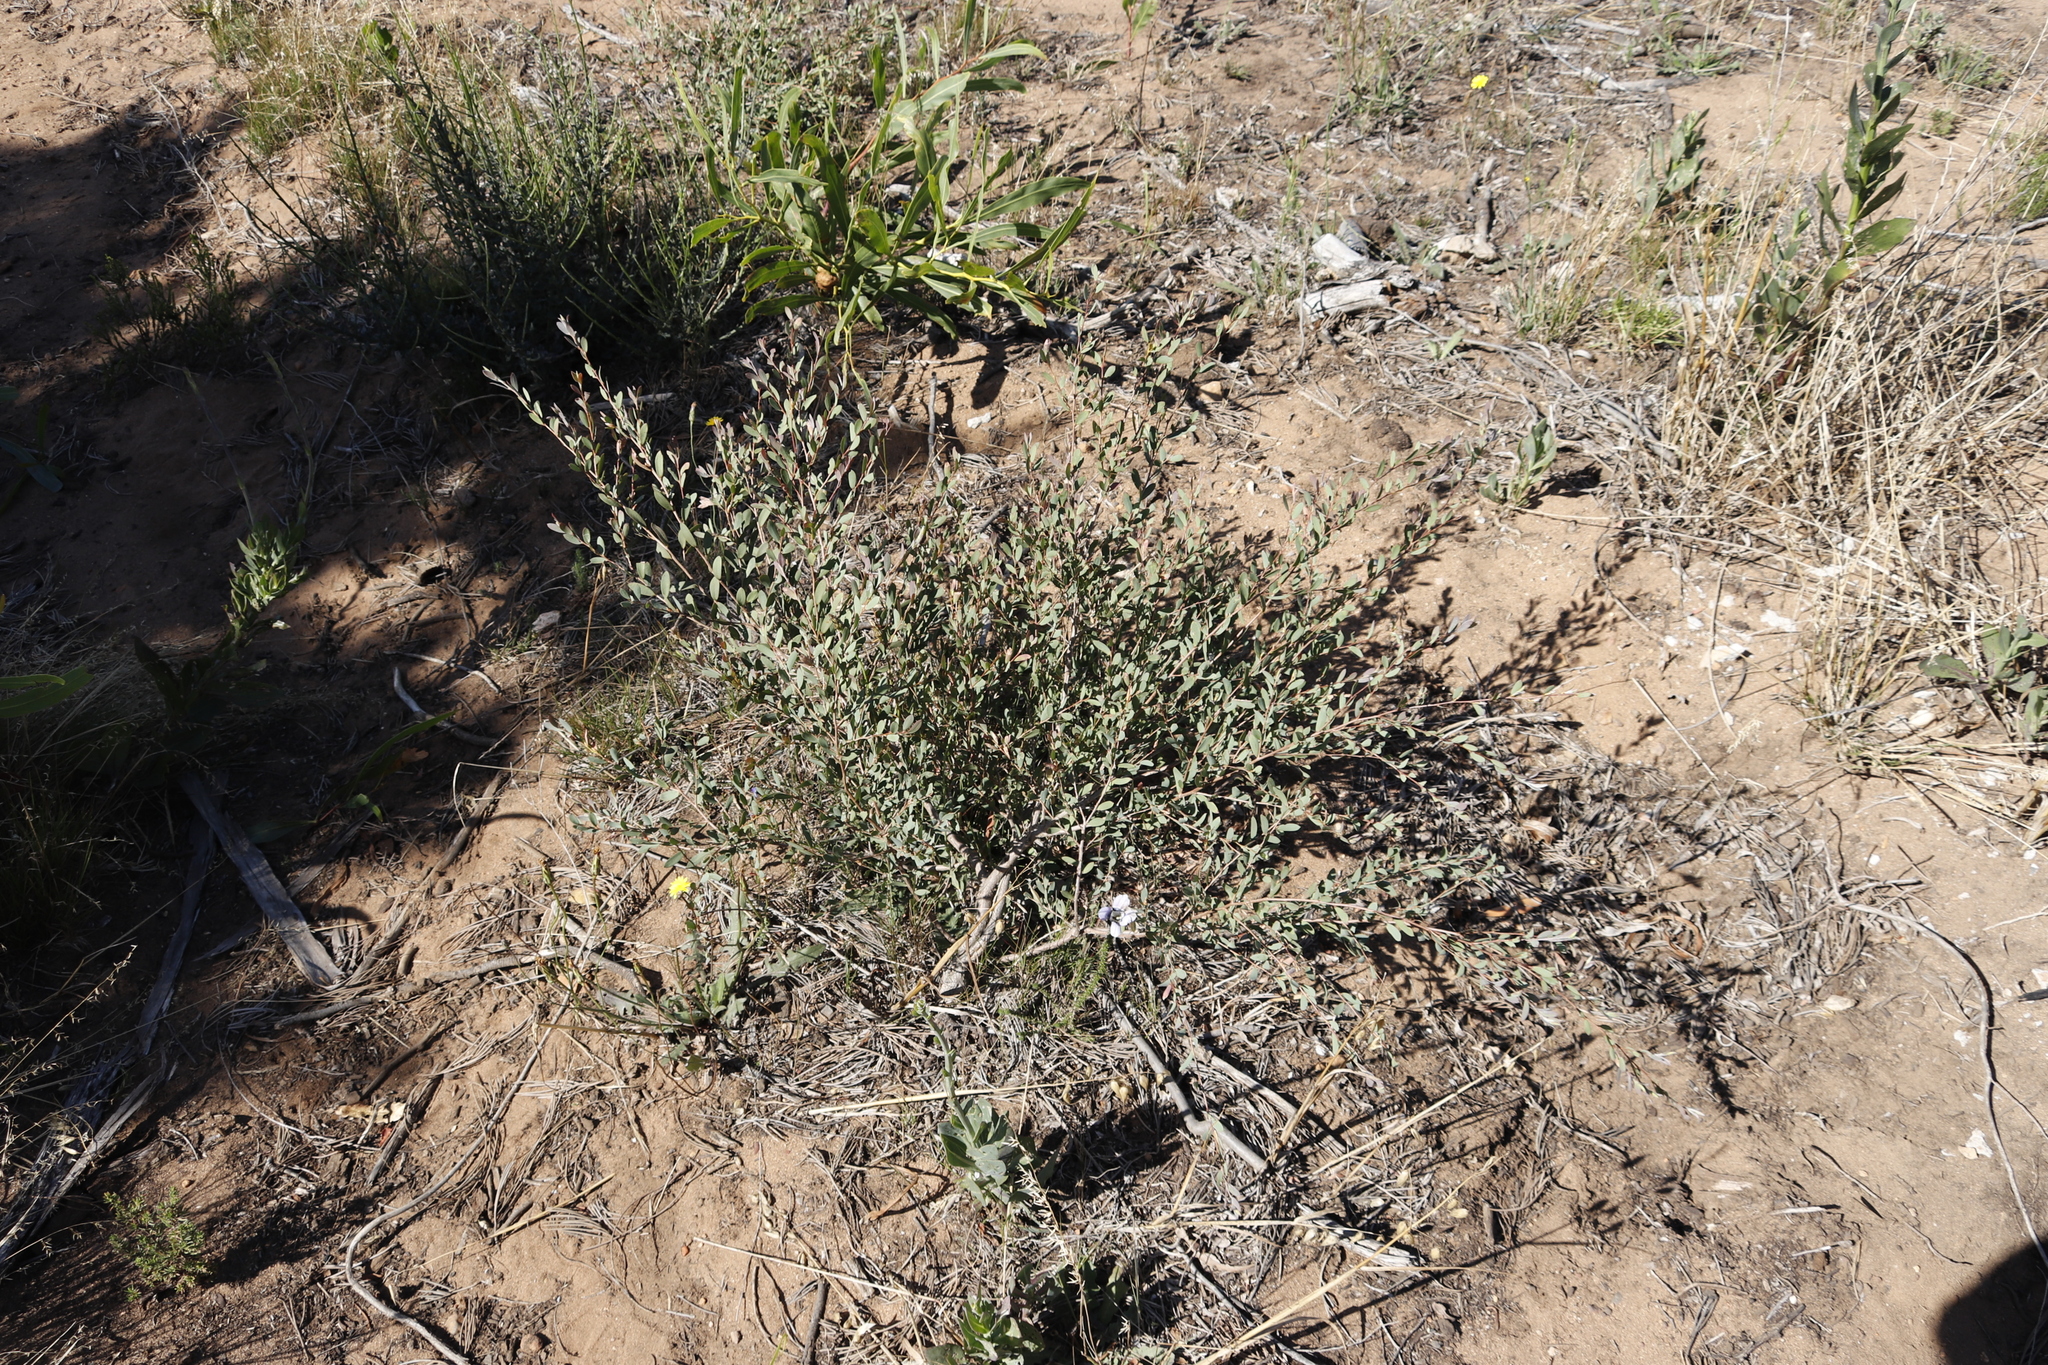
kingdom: Plantae
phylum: Tracheophyta
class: Magnoliopsida
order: Myrtales
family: Myrtaceae
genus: Leptospermum
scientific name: Leptospermum laevigatum
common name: Australian teatree
